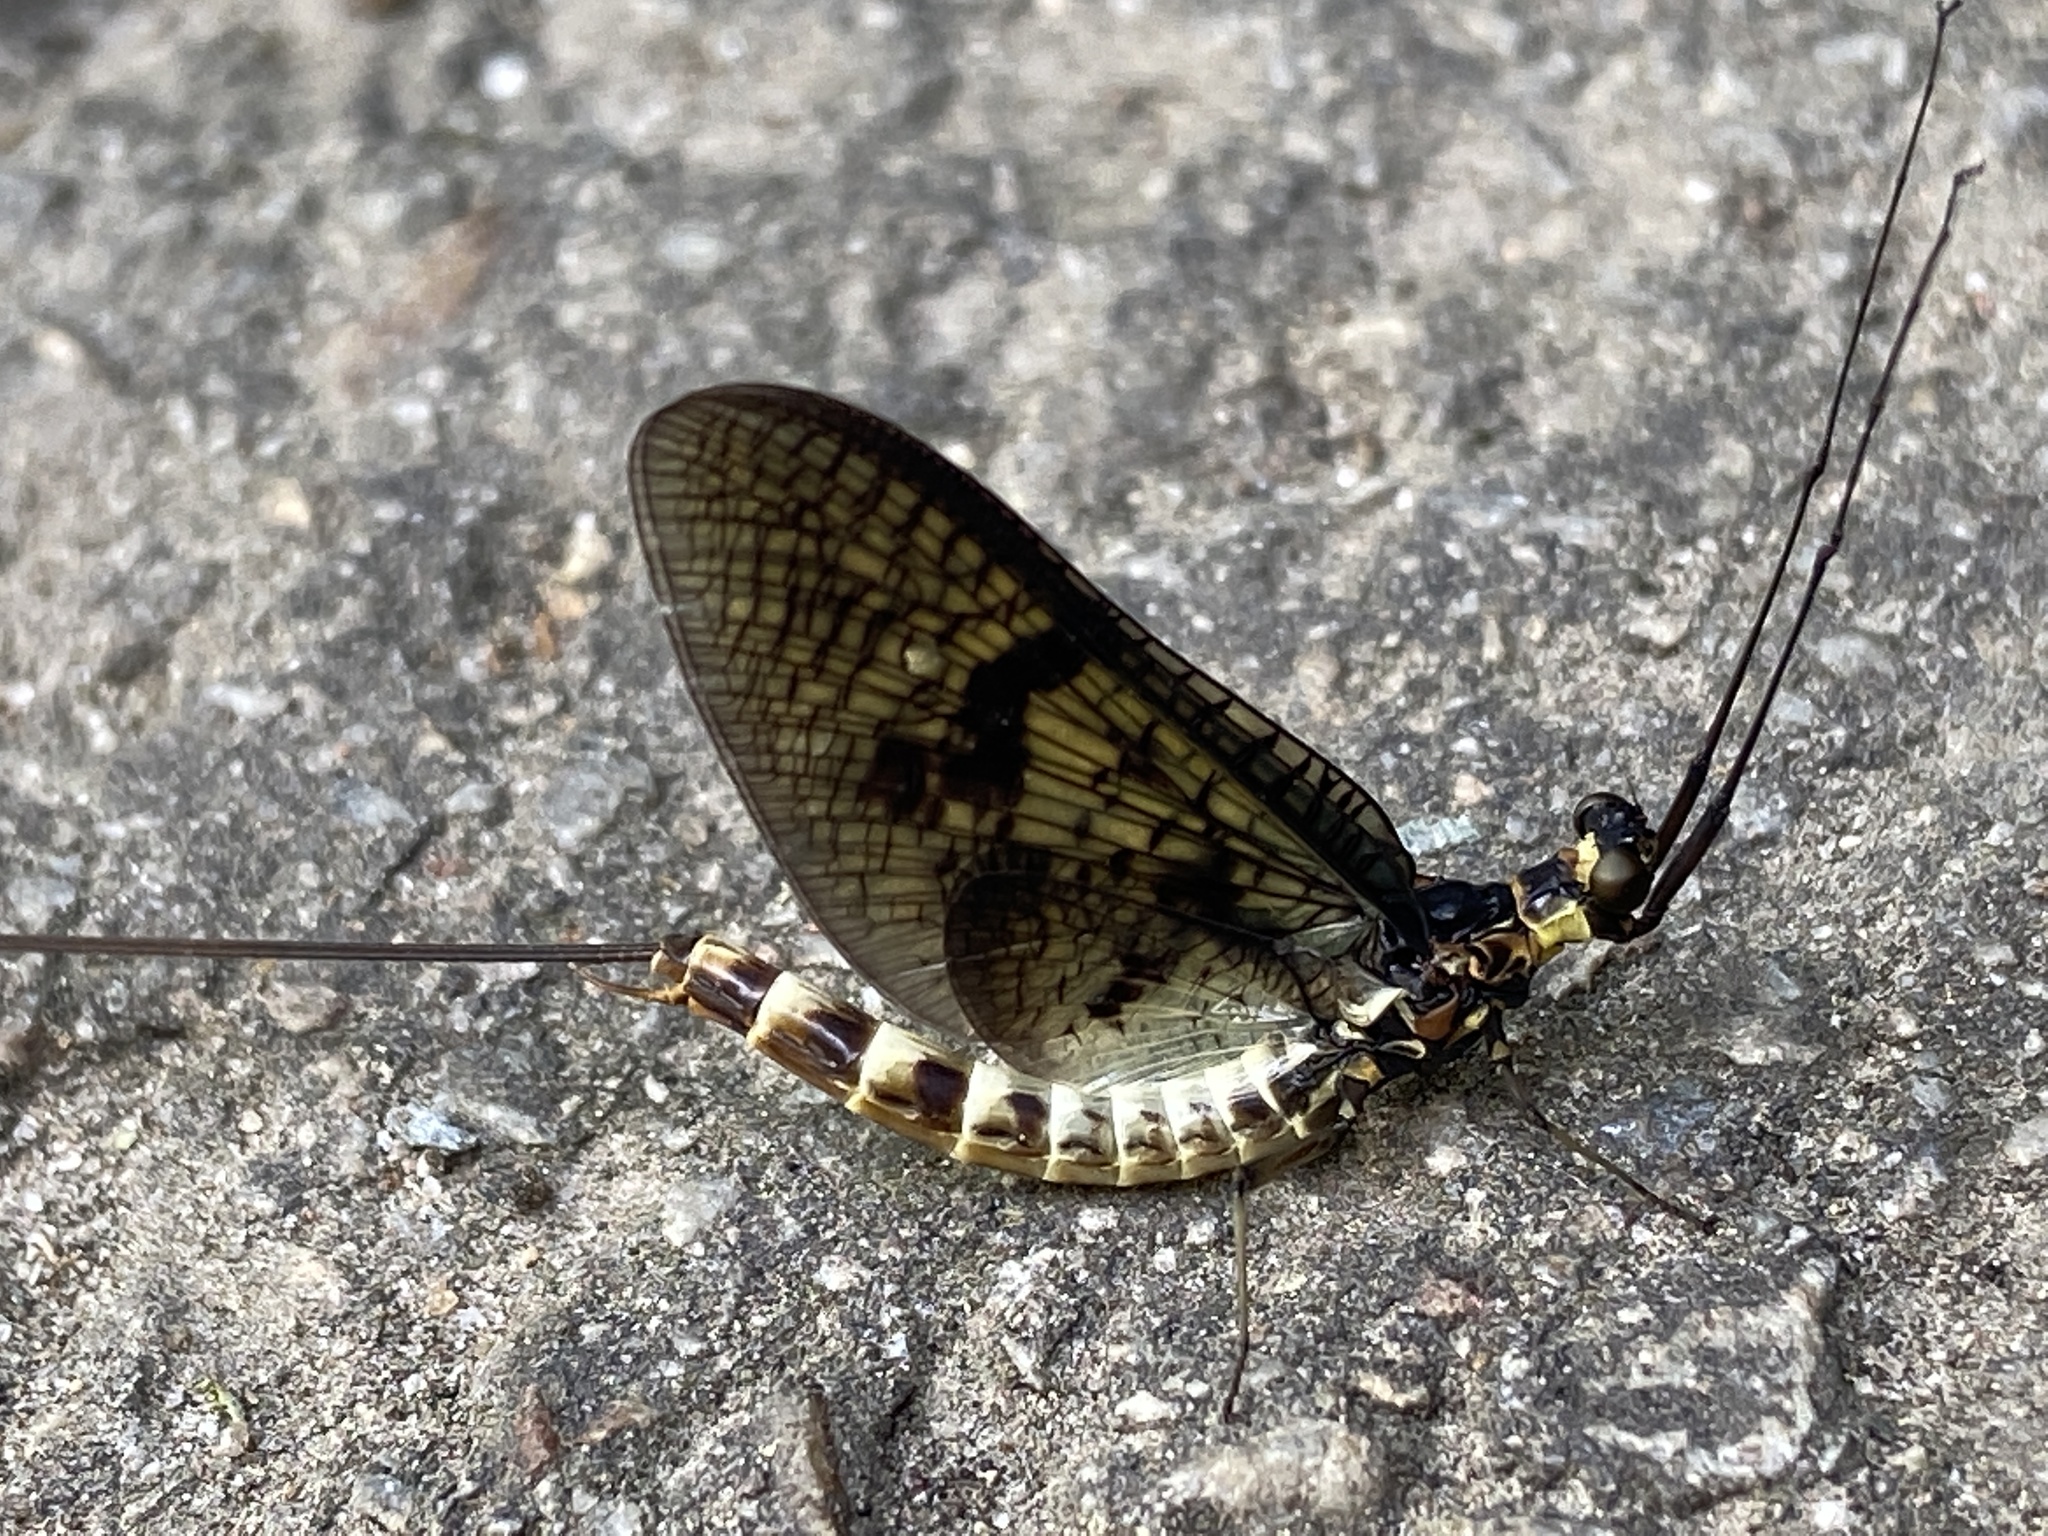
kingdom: Animalia
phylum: Arthropoda
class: Insecta
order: Ephemeroptera
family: Ephemeridae
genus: Ephemera
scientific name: Ephemera danica
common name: Green dun
